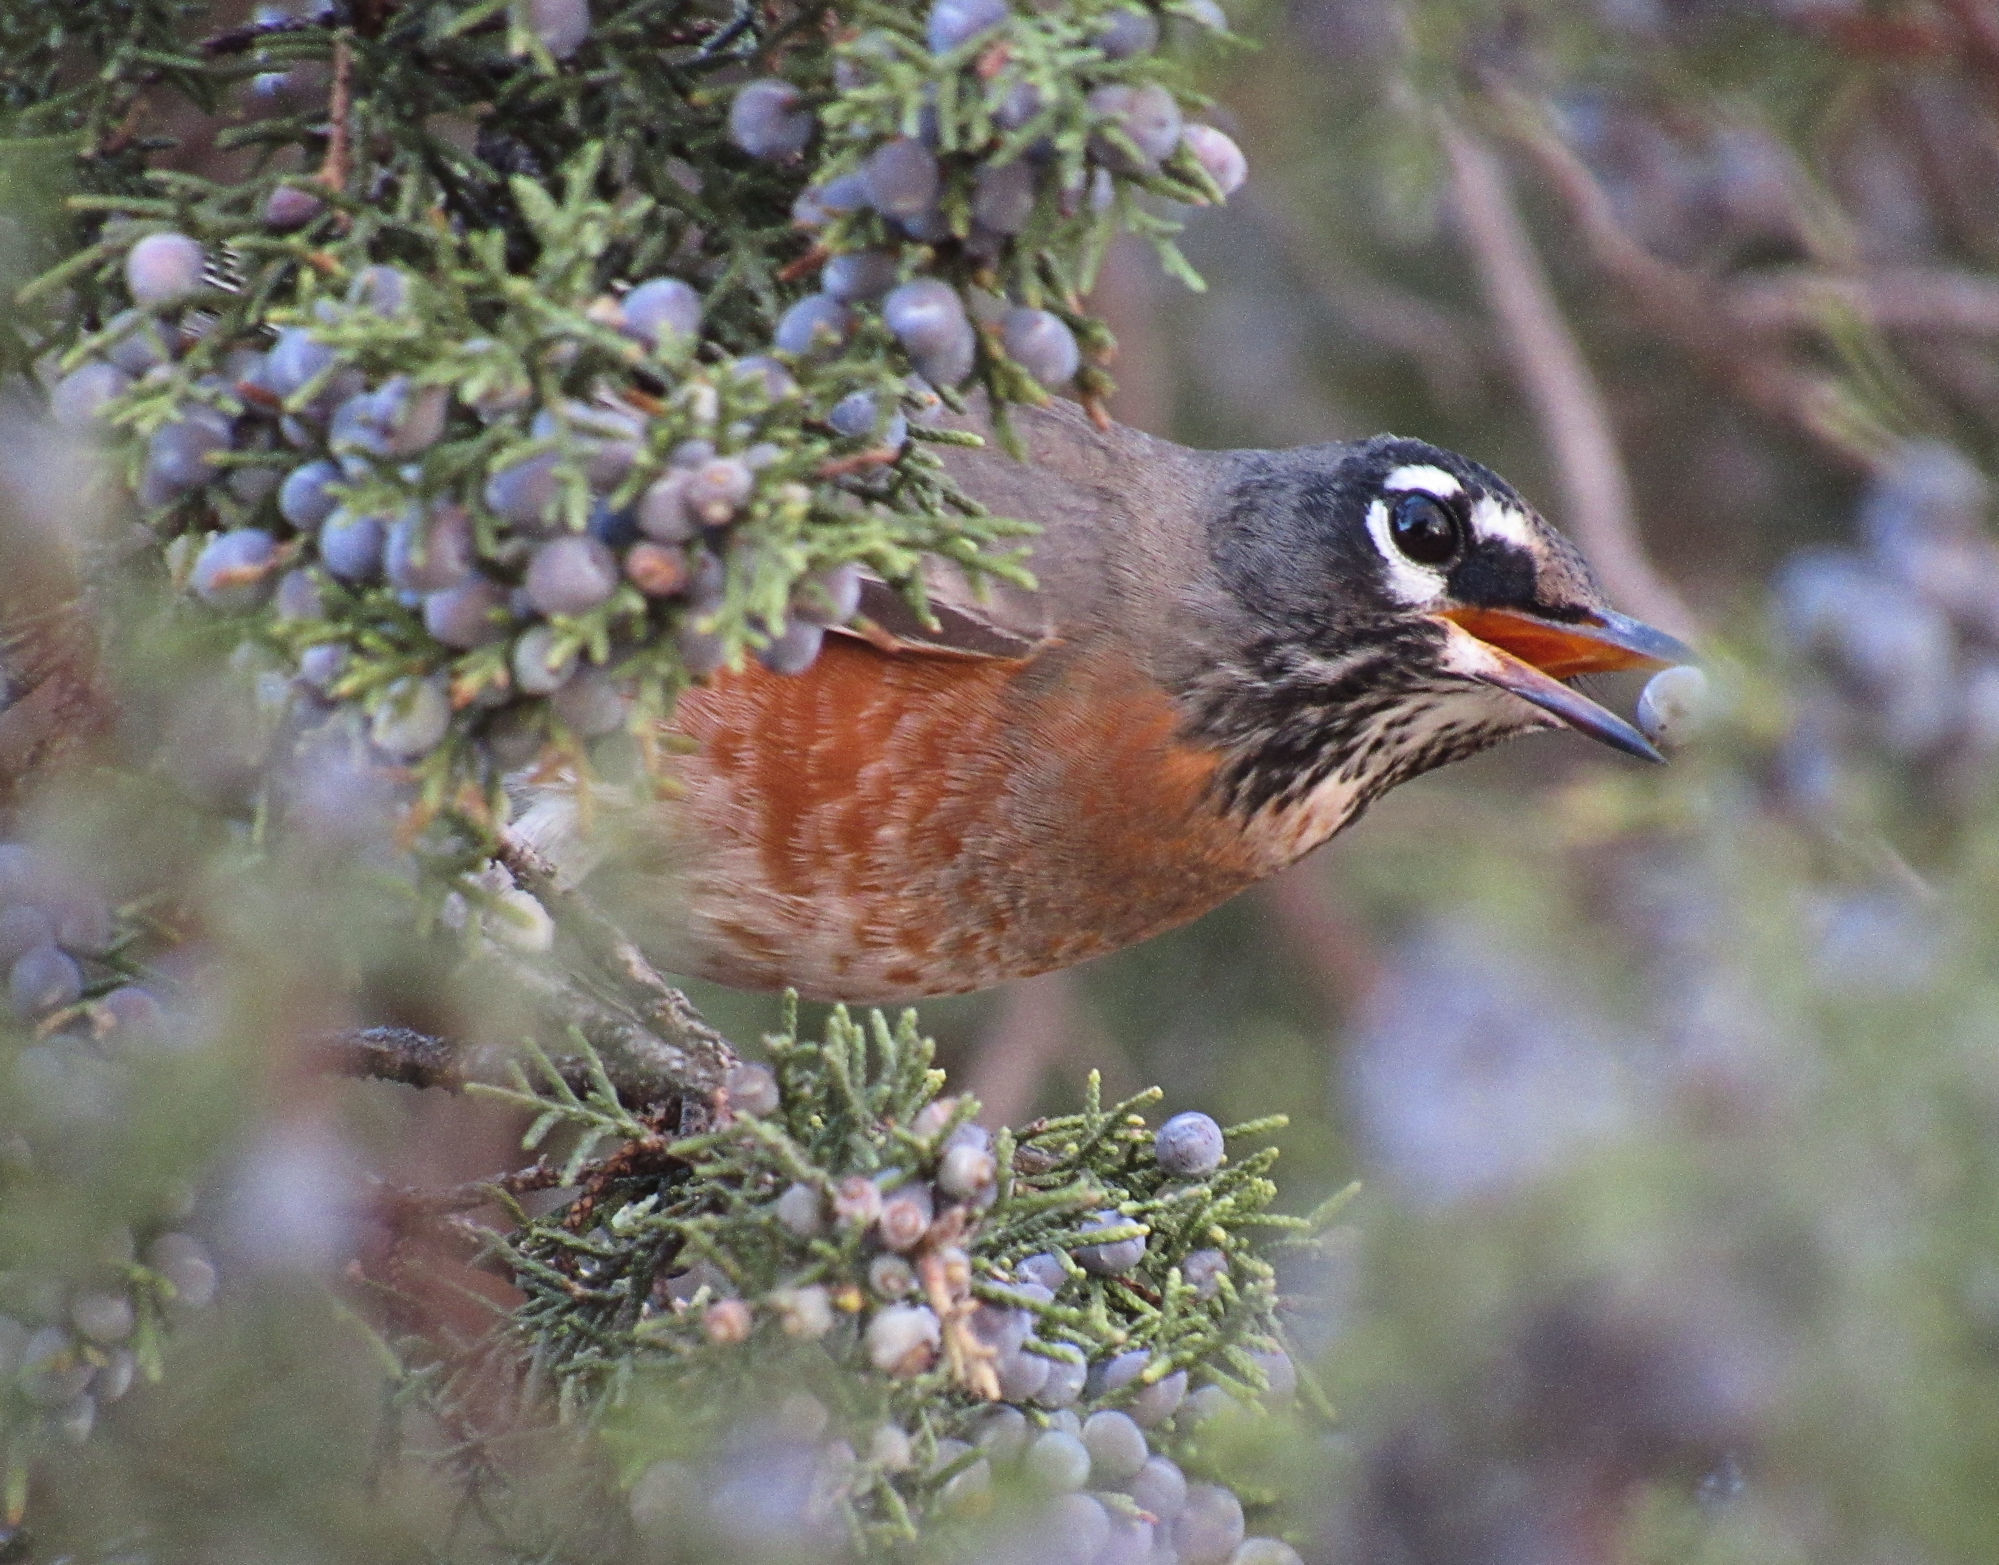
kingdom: Animalia
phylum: Chordata
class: Aves
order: Passeriformes
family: Turdidae
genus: Turdus
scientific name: Turdus migratorius
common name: American robin
